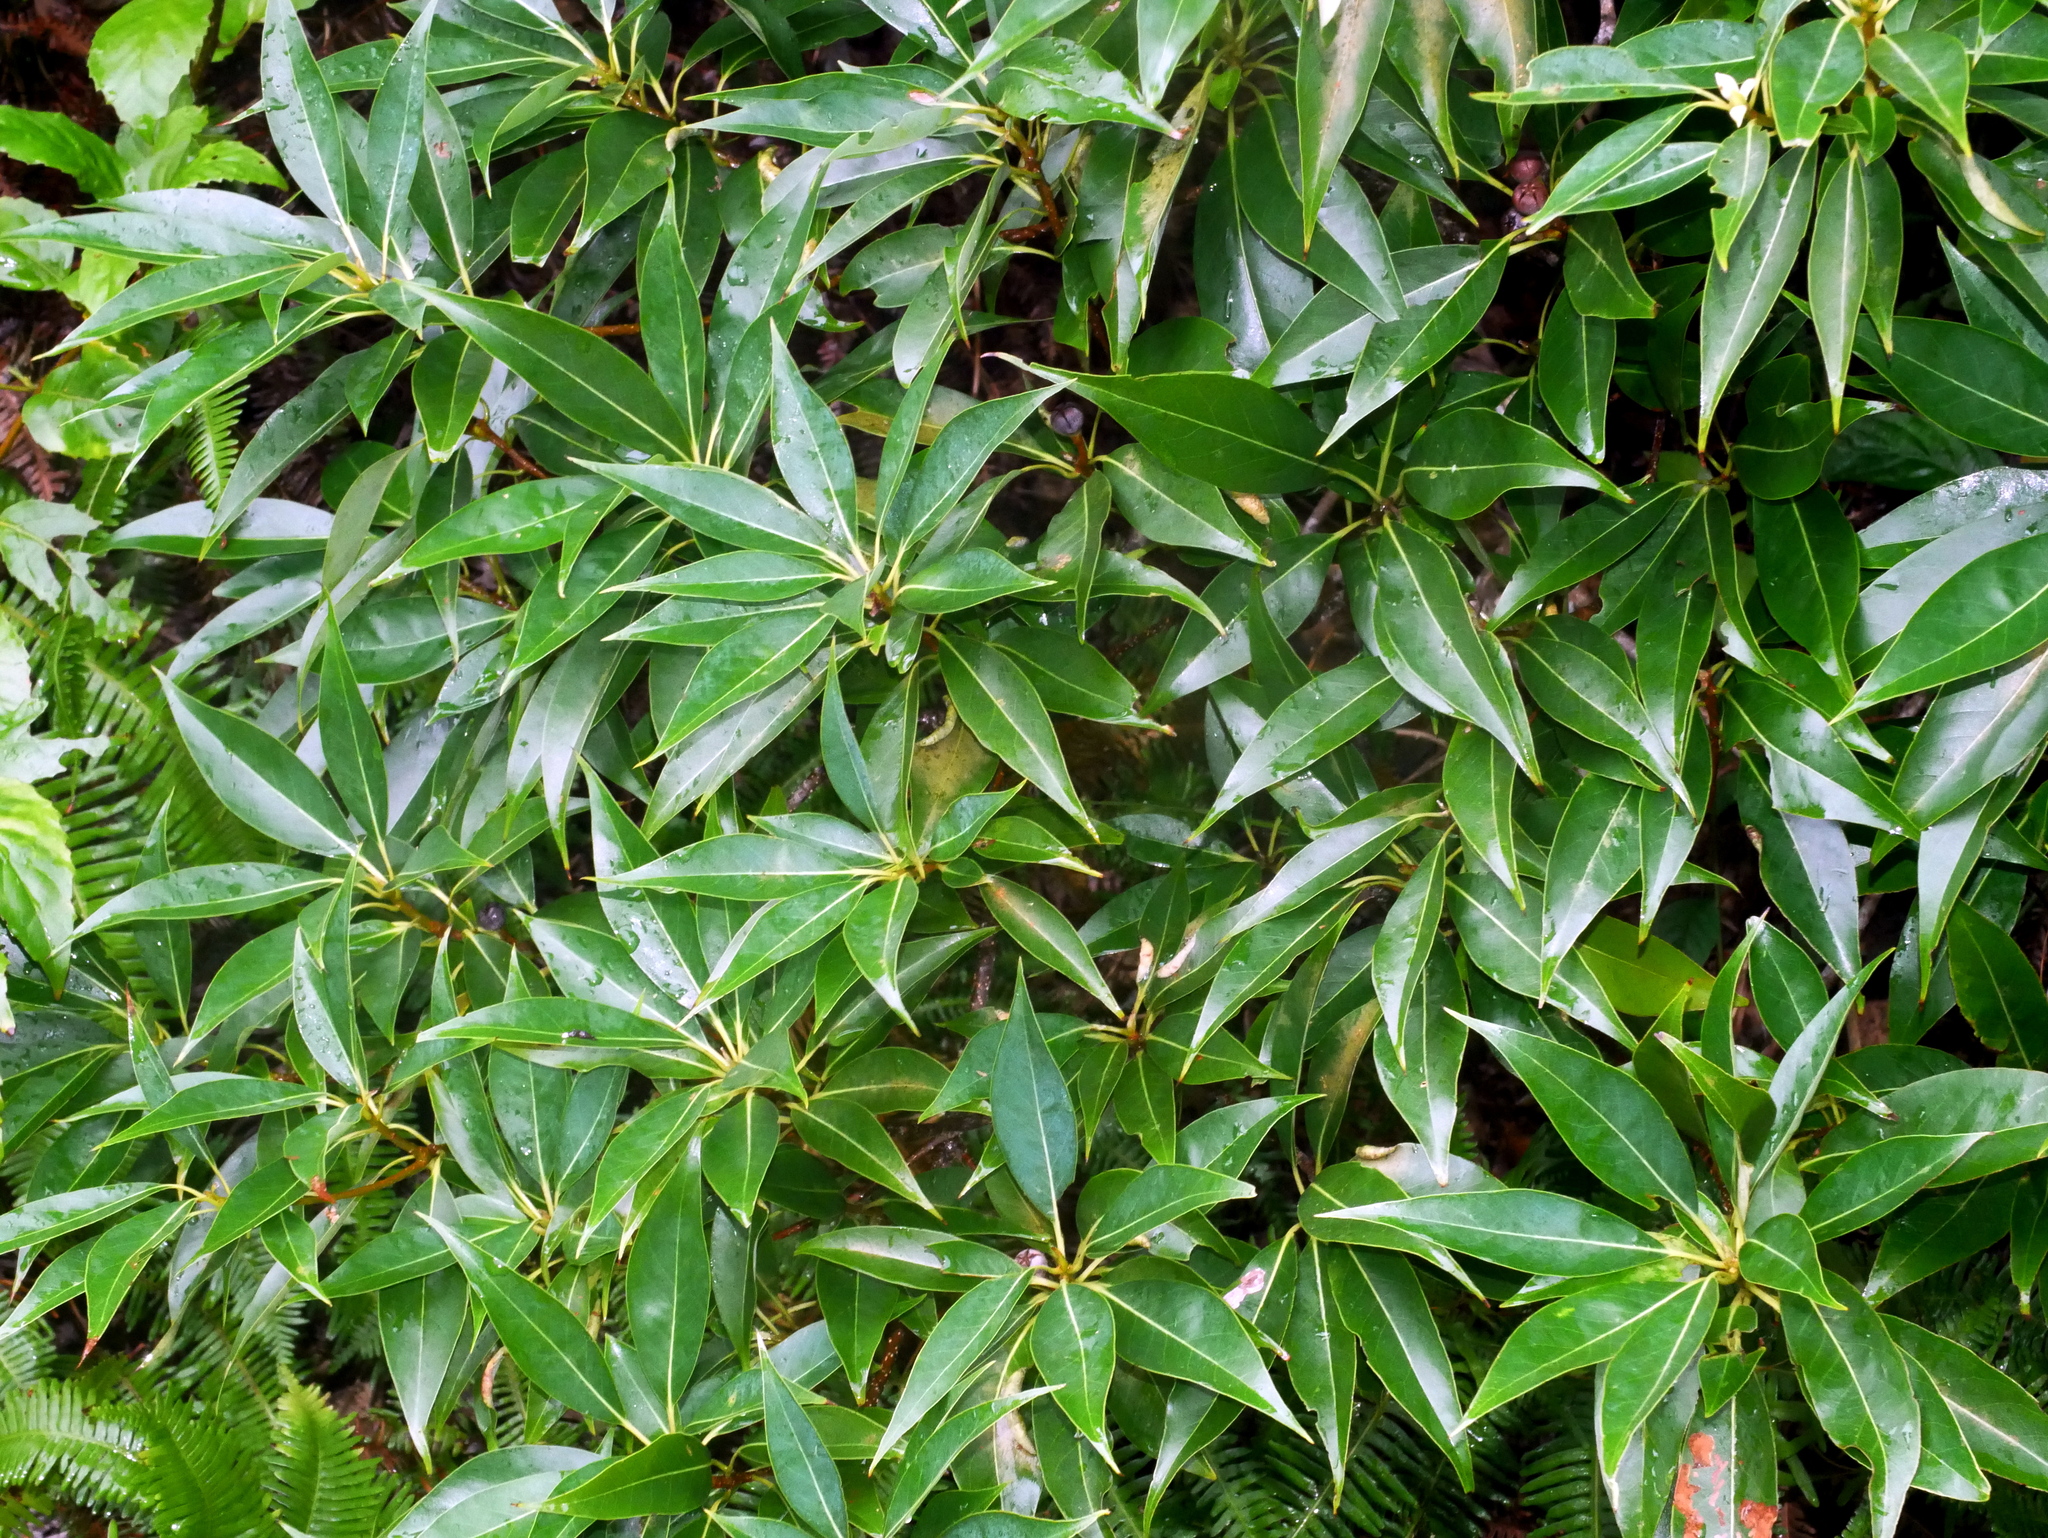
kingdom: Plantae
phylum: Tracheophyta
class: Magnoliopsida
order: Ericales
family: Theaceae
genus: Schima
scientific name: Schima superba
